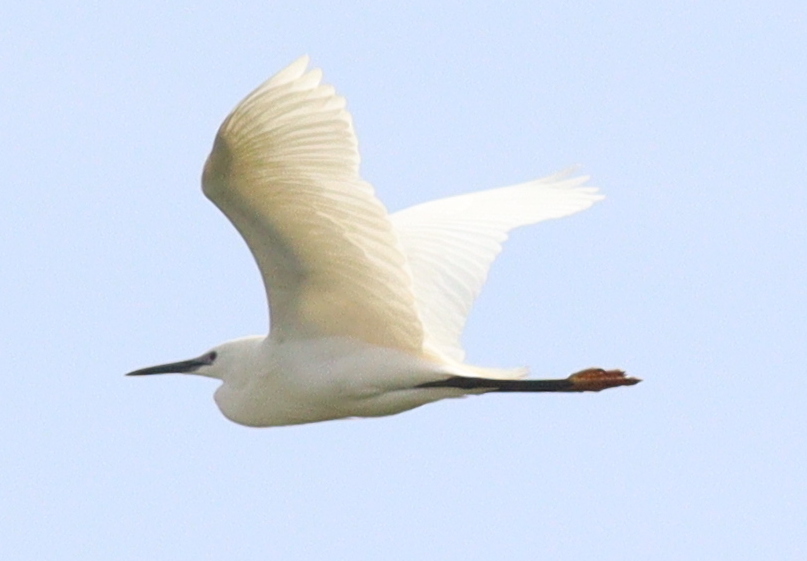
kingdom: Animalia
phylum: Chordata
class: Aves
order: Pelecaniformes
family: Ardeidae
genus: Egretta
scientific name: Egretta garzetta
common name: Little egret
